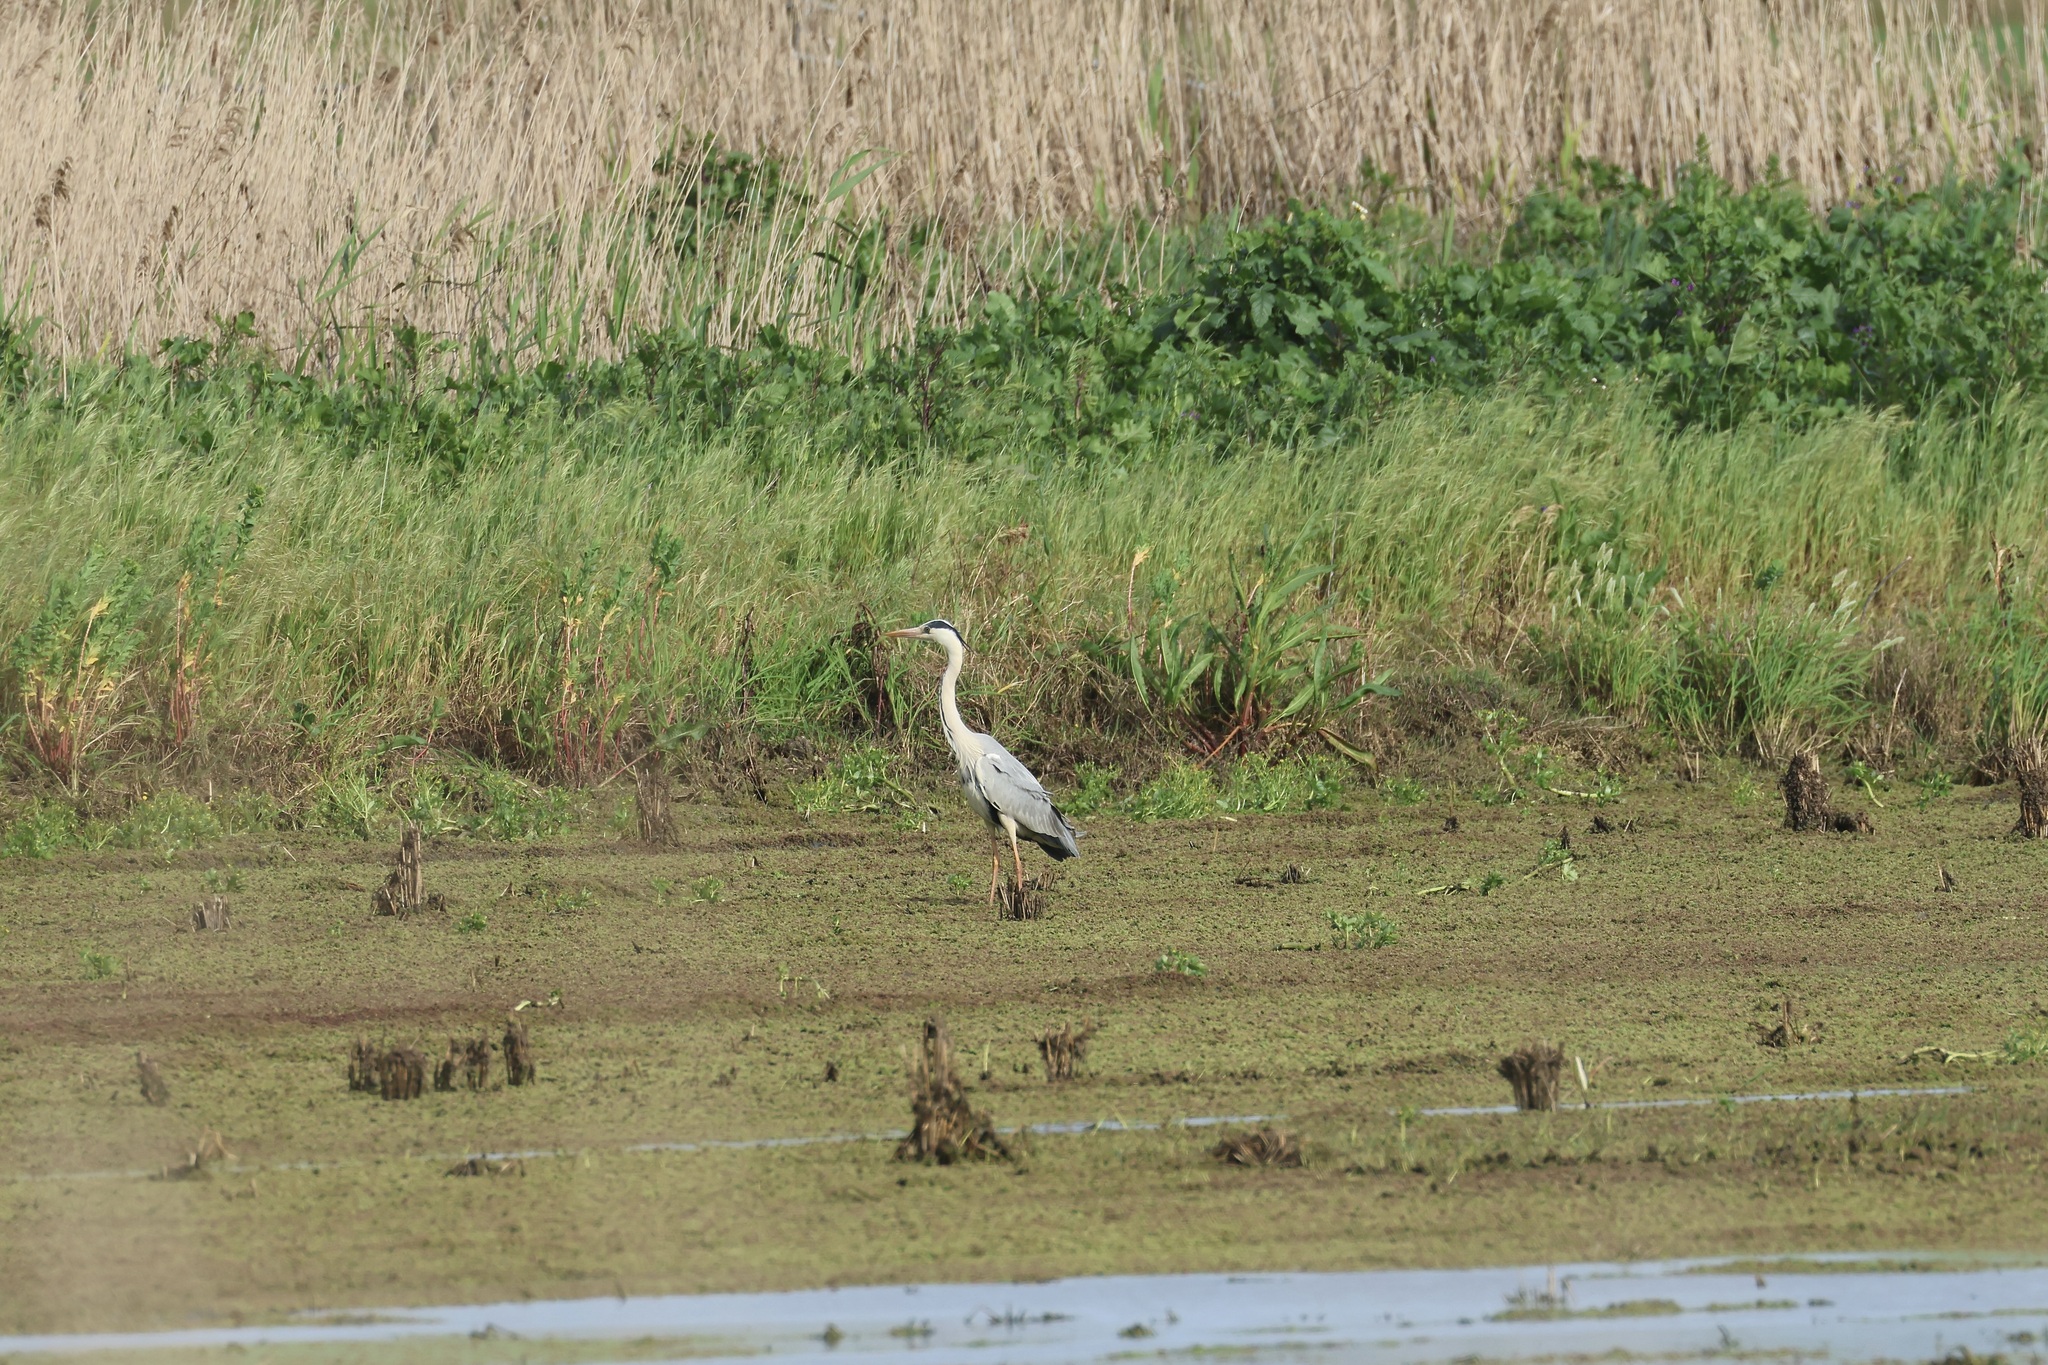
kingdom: Animalia
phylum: Chordata
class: Aves
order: Pelecaniformes
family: Ardeidae
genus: Ardea
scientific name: Ardea cinerea
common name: Grey heron
